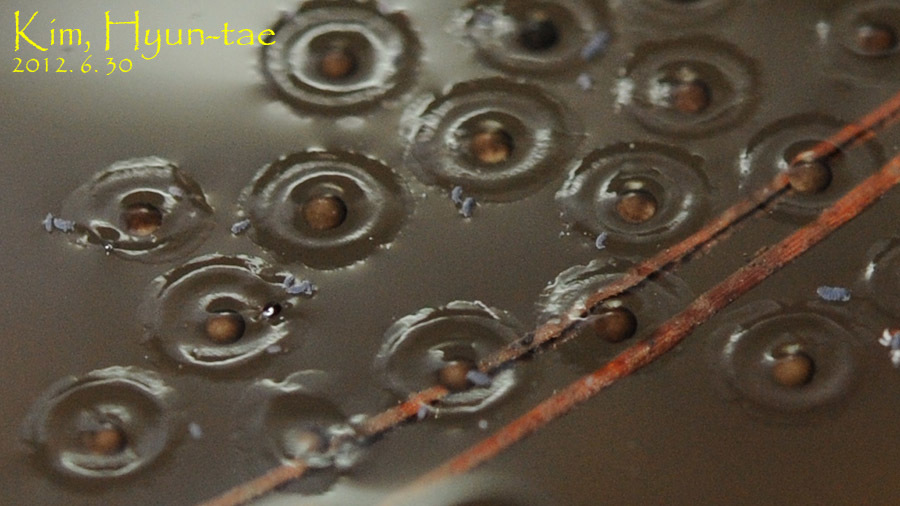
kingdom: Animalia
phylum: Chordata
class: Amphibia
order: Anura
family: Microhylidae
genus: Kaloula
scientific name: Kaloula borealis
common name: Boreal digging frog
